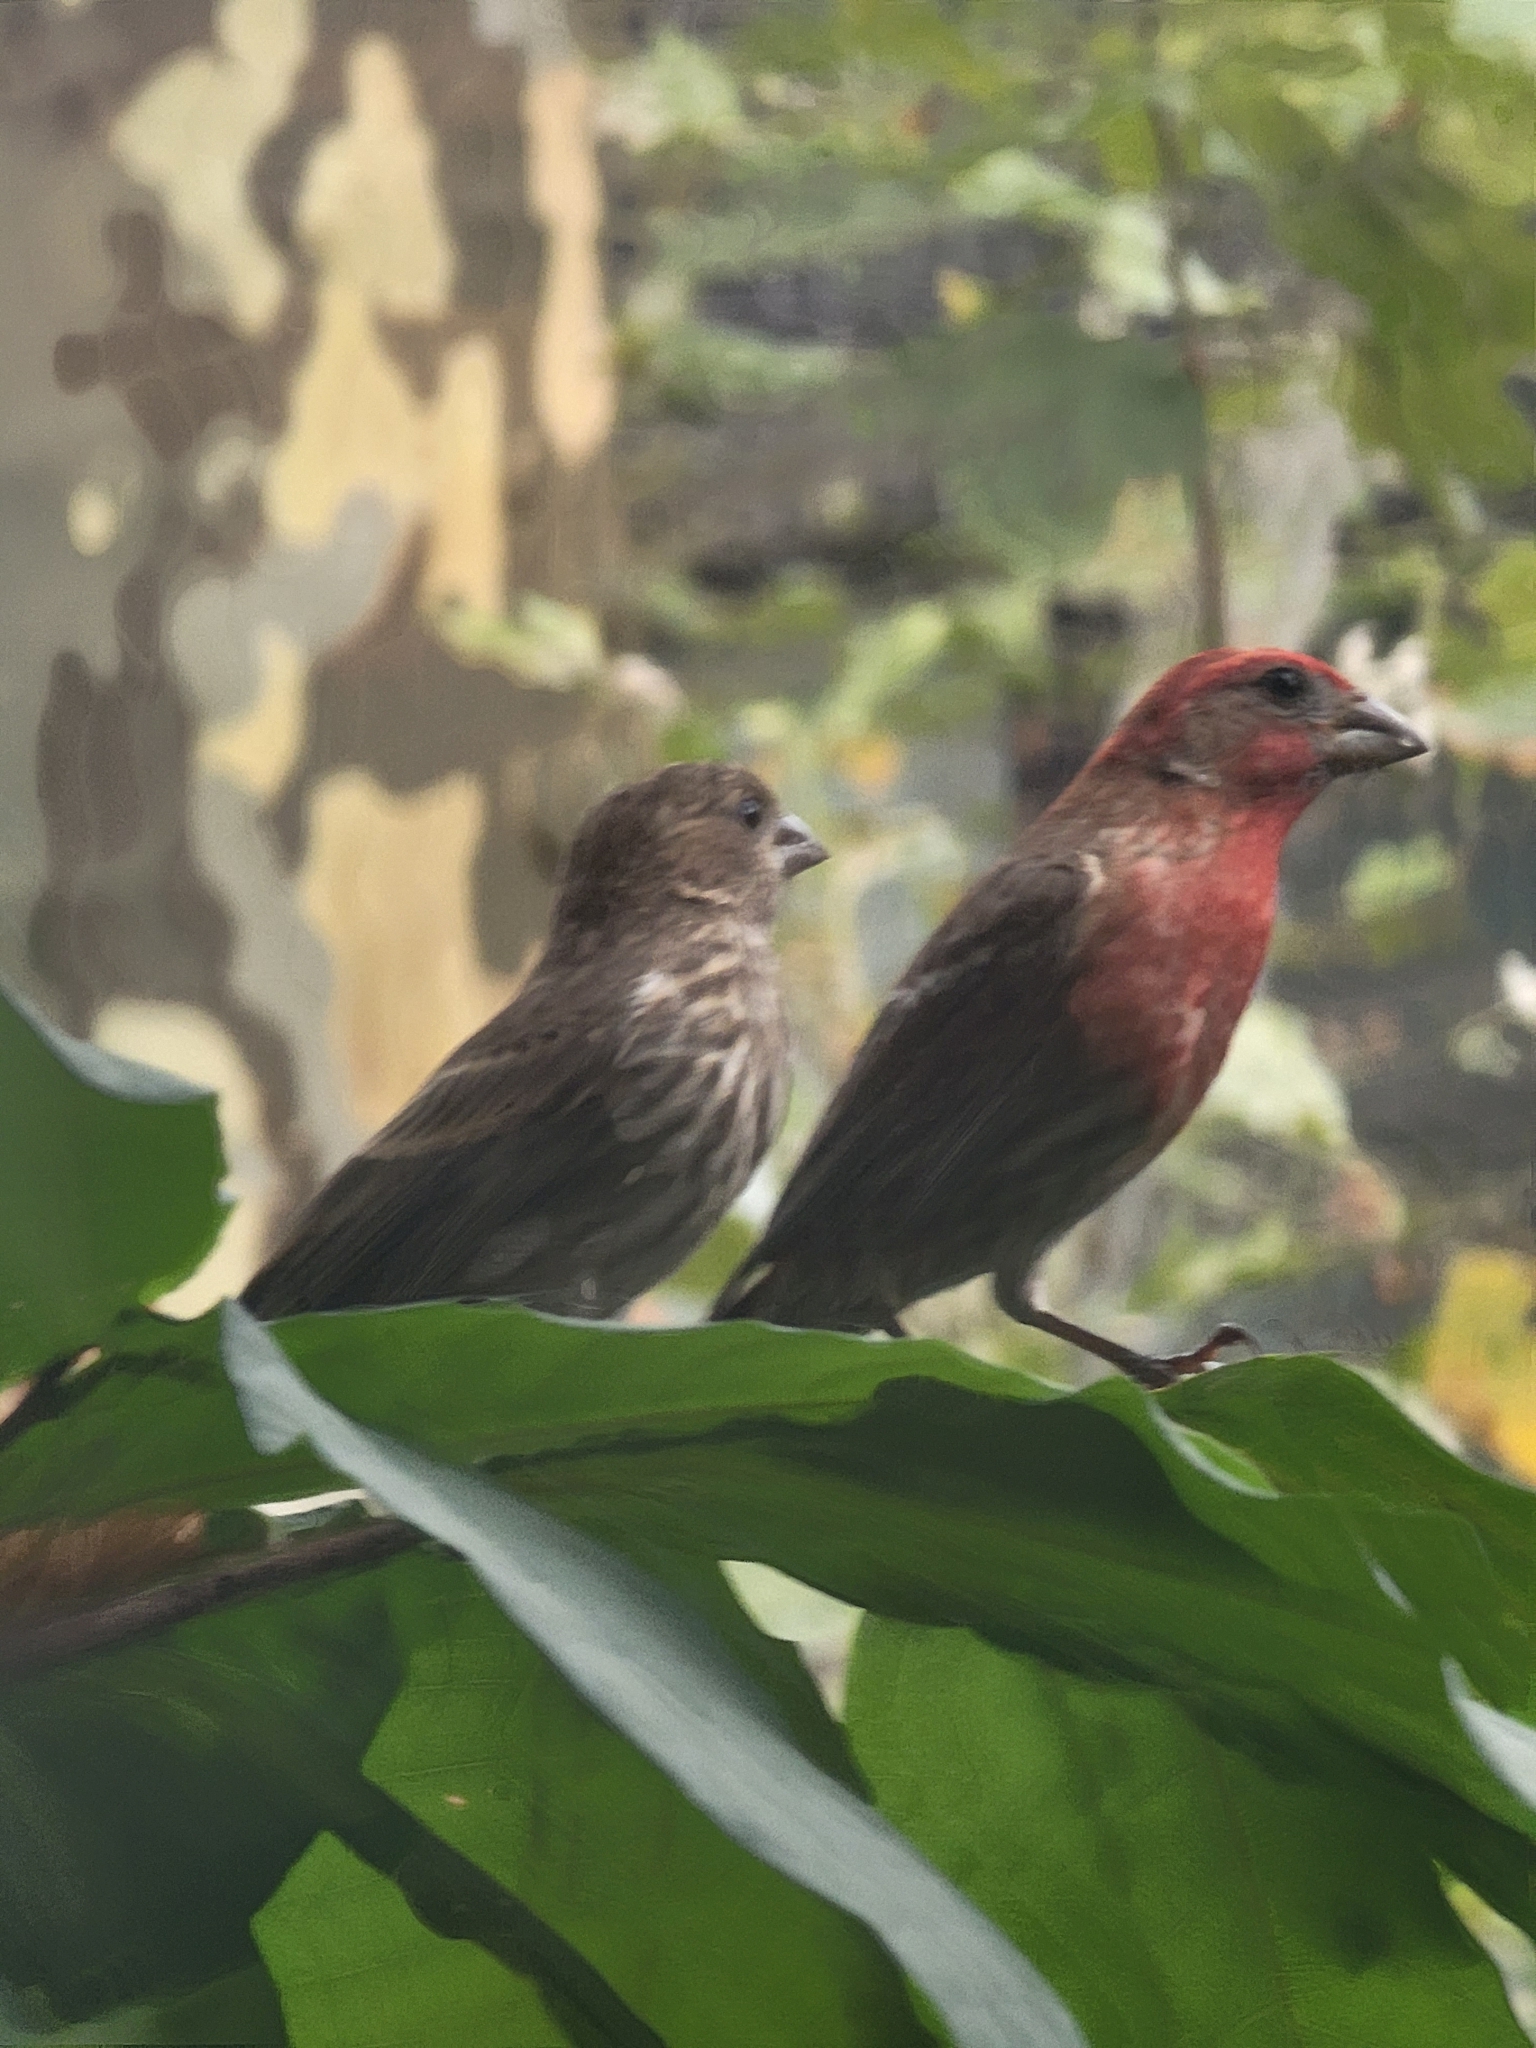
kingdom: Animalia
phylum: Chordata
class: Aves
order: Passeriformes
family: Fringillidae
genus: Haemorhous
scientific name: Haemorhous mexicanus
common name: House finch
